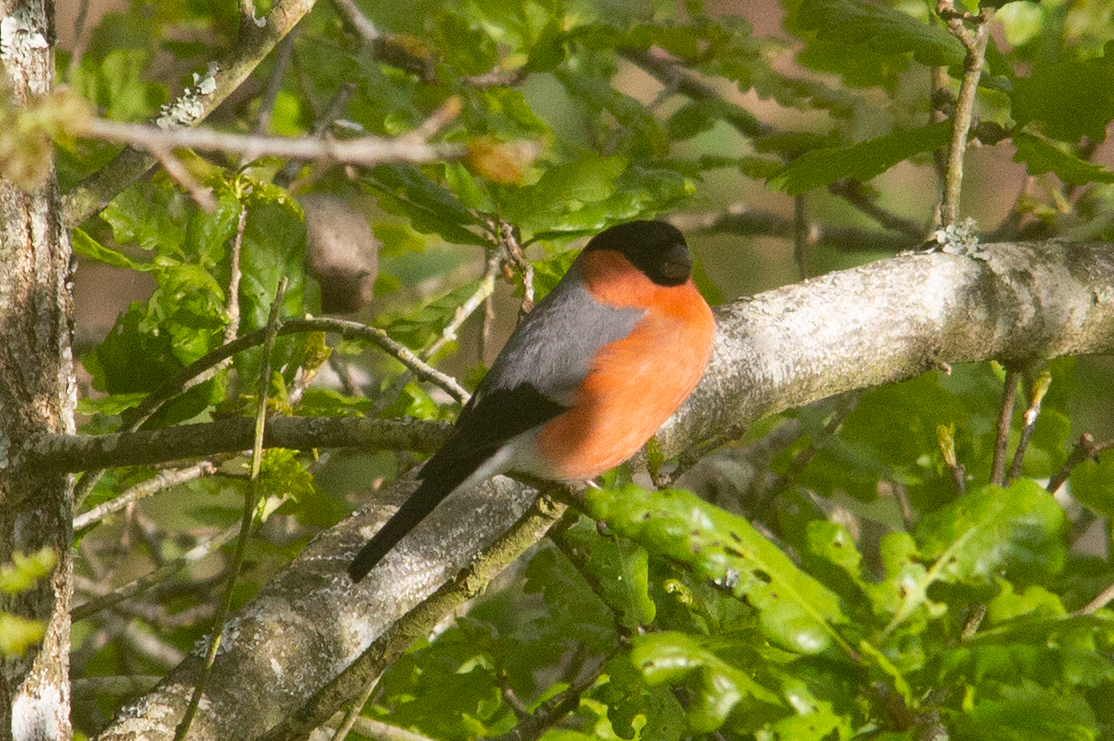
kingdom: Animalia
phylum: Chordata
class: Aves
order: Passeriformes
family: Fringillidae
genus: Pyrrhula
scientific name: Pyrrhula pyrrhula
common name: Eurasian bullfinch
